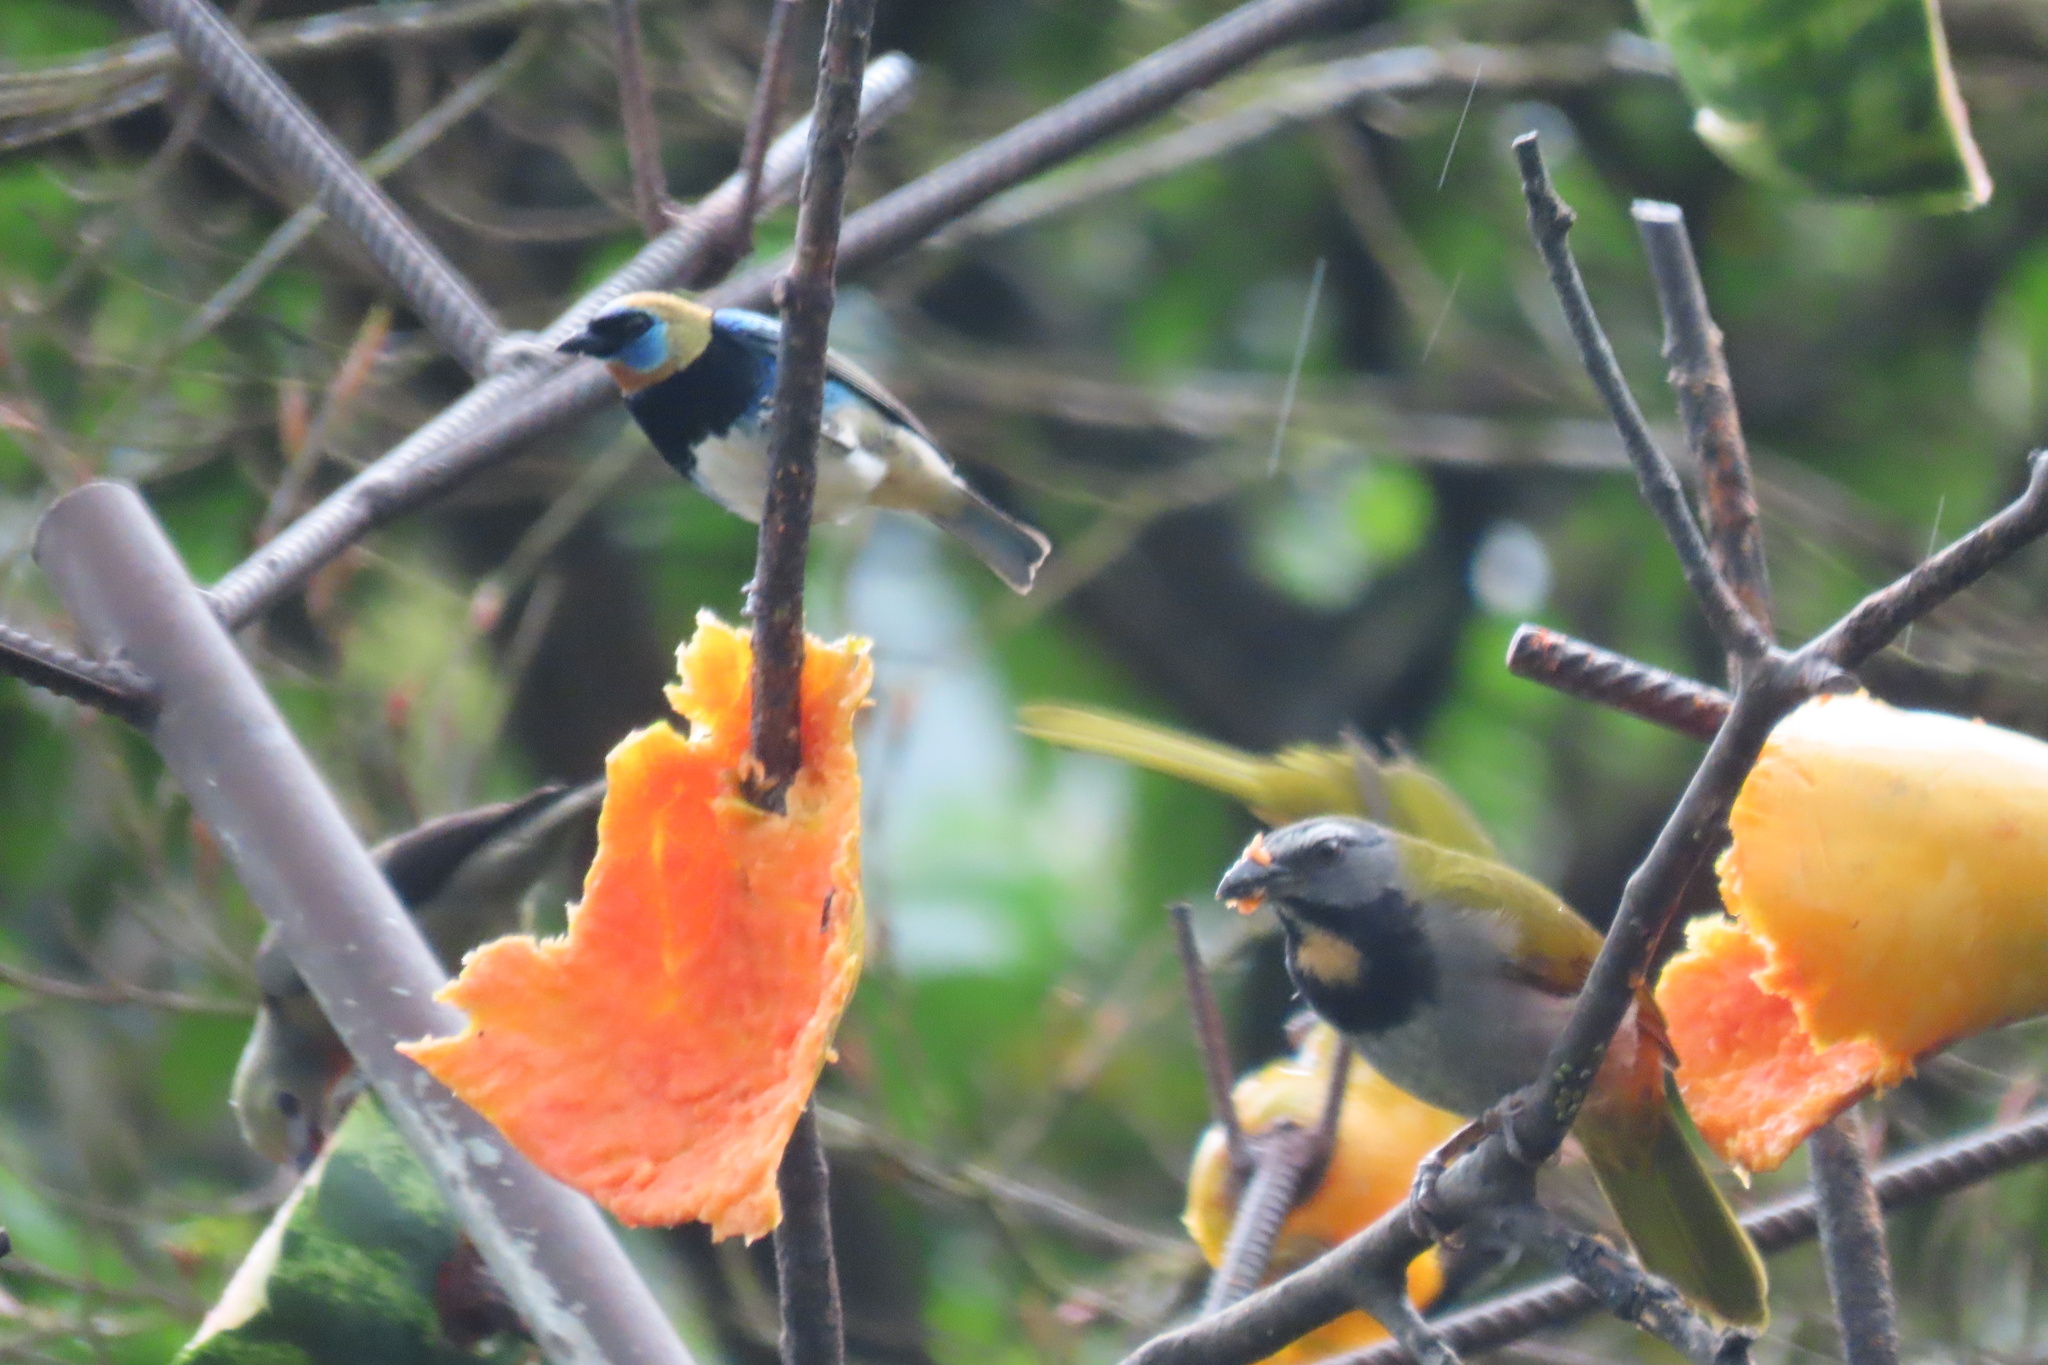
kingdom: Animalia
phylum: Chordata
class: Aves
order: Passeriformes
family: Thraupidae
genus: Saltator
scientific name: Saltator maximus
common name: Buff-throated saltator
